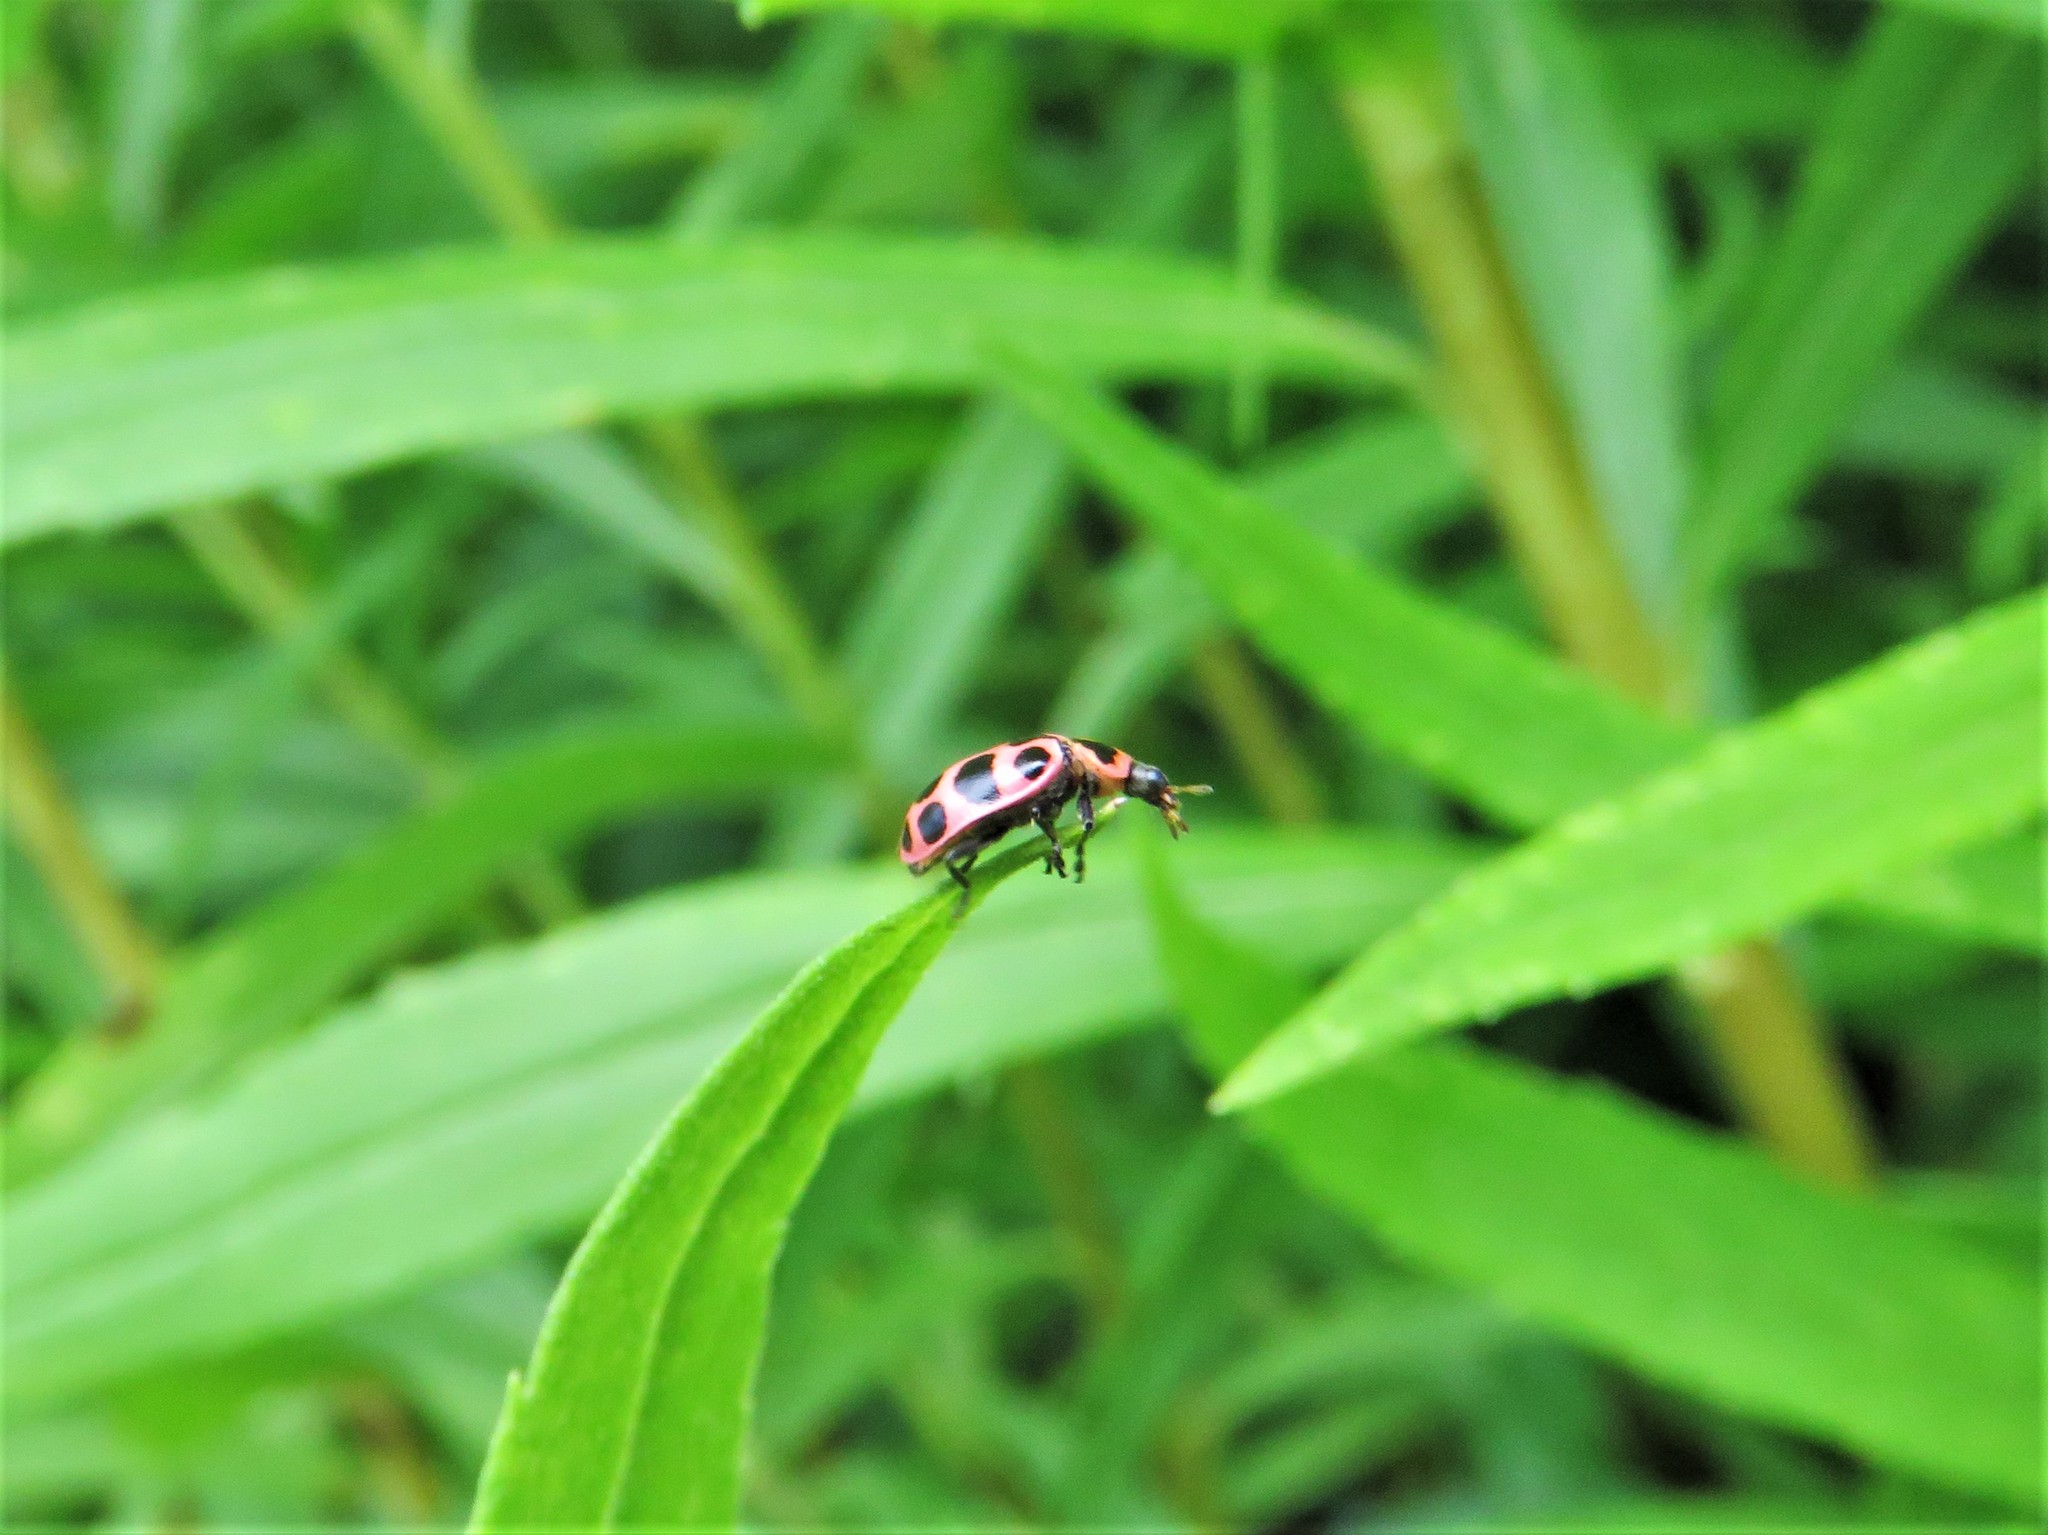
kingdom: Animalia
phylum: Arthropoda
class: Insecta
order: Coleoptera
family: Coccinellidae
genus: Coleomegilla
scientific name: Coleomegilla maculata
